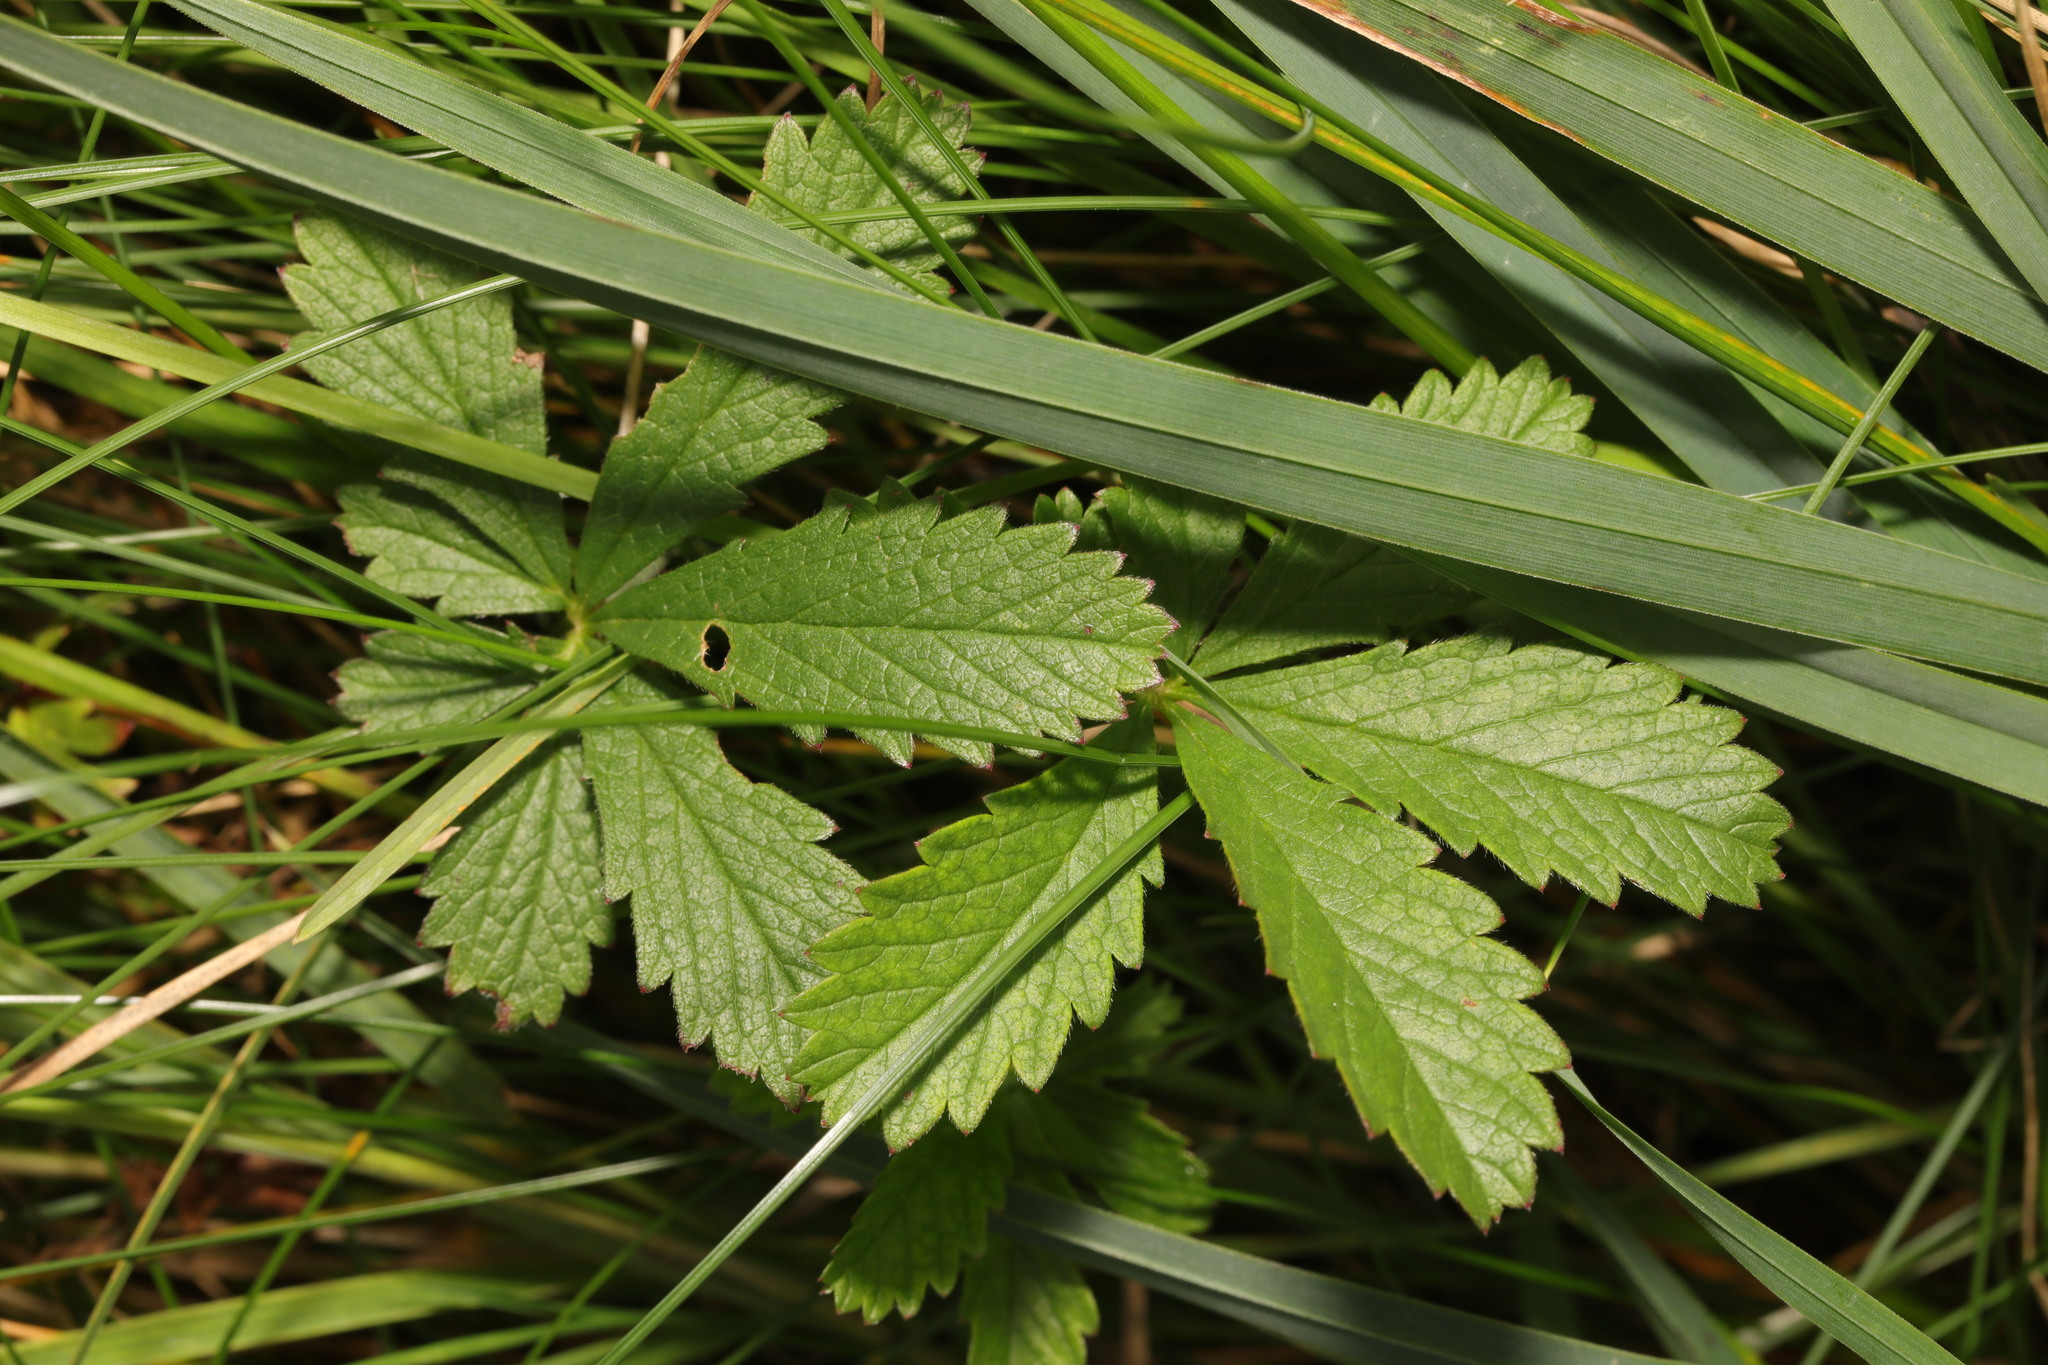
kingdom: Plantae
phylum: Tracheophyta
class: Magnoliopsida
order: Rosales
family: Rosaceae
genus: Potentilla
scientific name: Potentilla reptans
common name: Creeping cinquefoil
